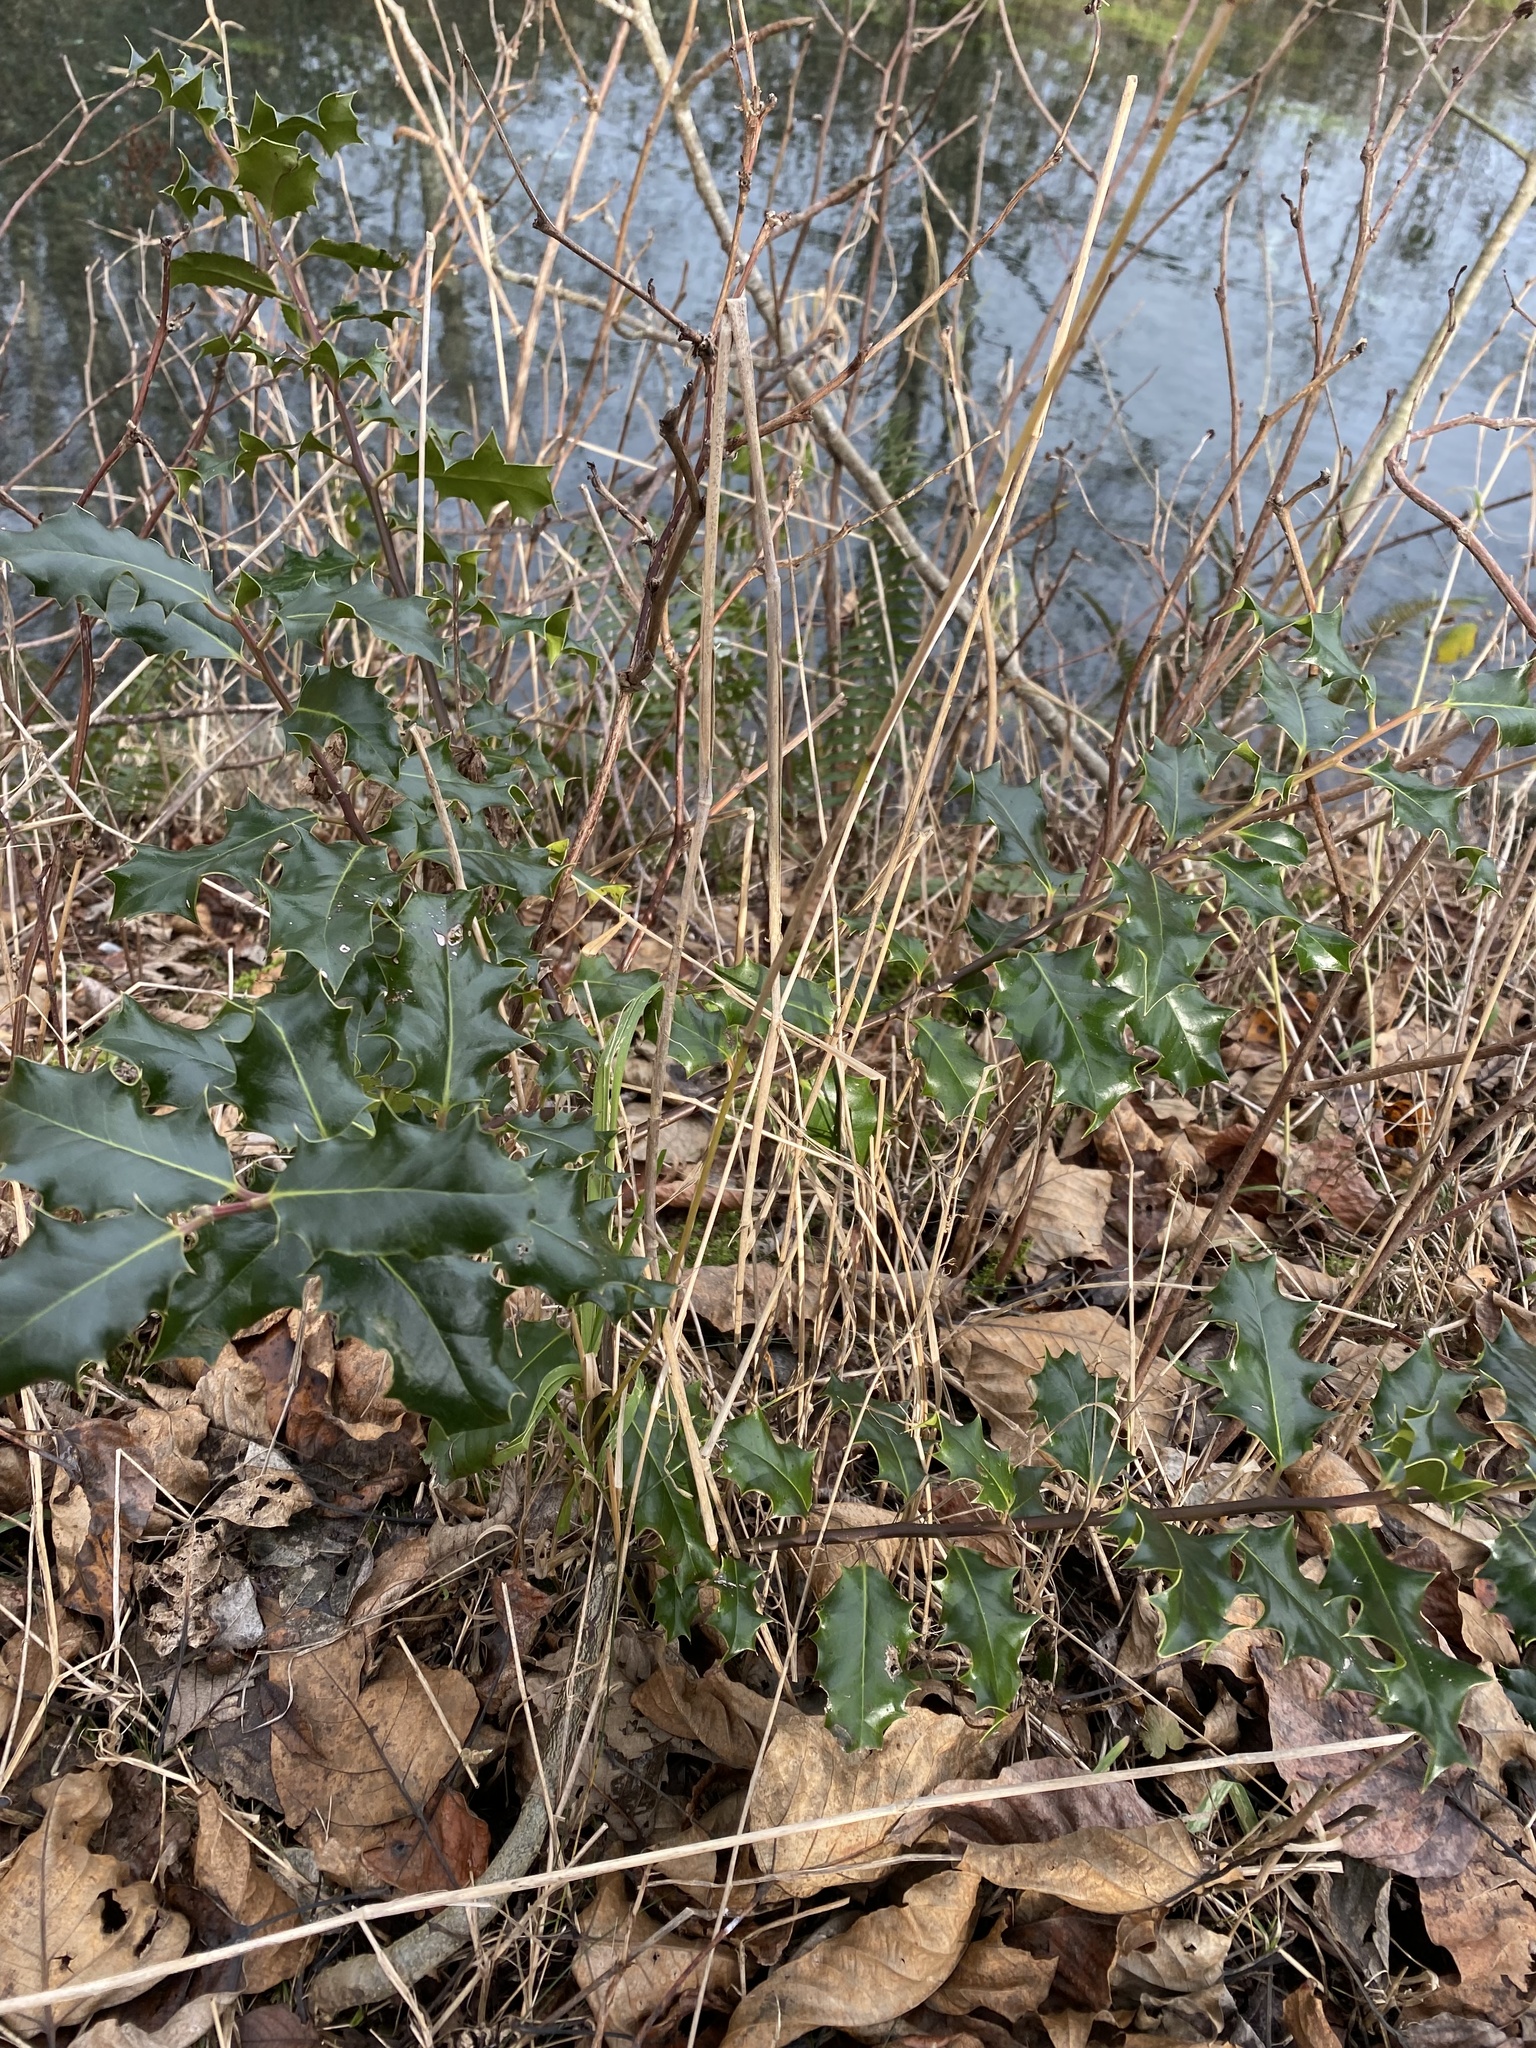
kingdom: Plantae
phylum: Tracheophyta
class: Magnoliopsida
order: Aquifoliales
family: Aquifoliaceae
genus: Ilex
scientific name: Ilex aquifolium
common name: English holly
